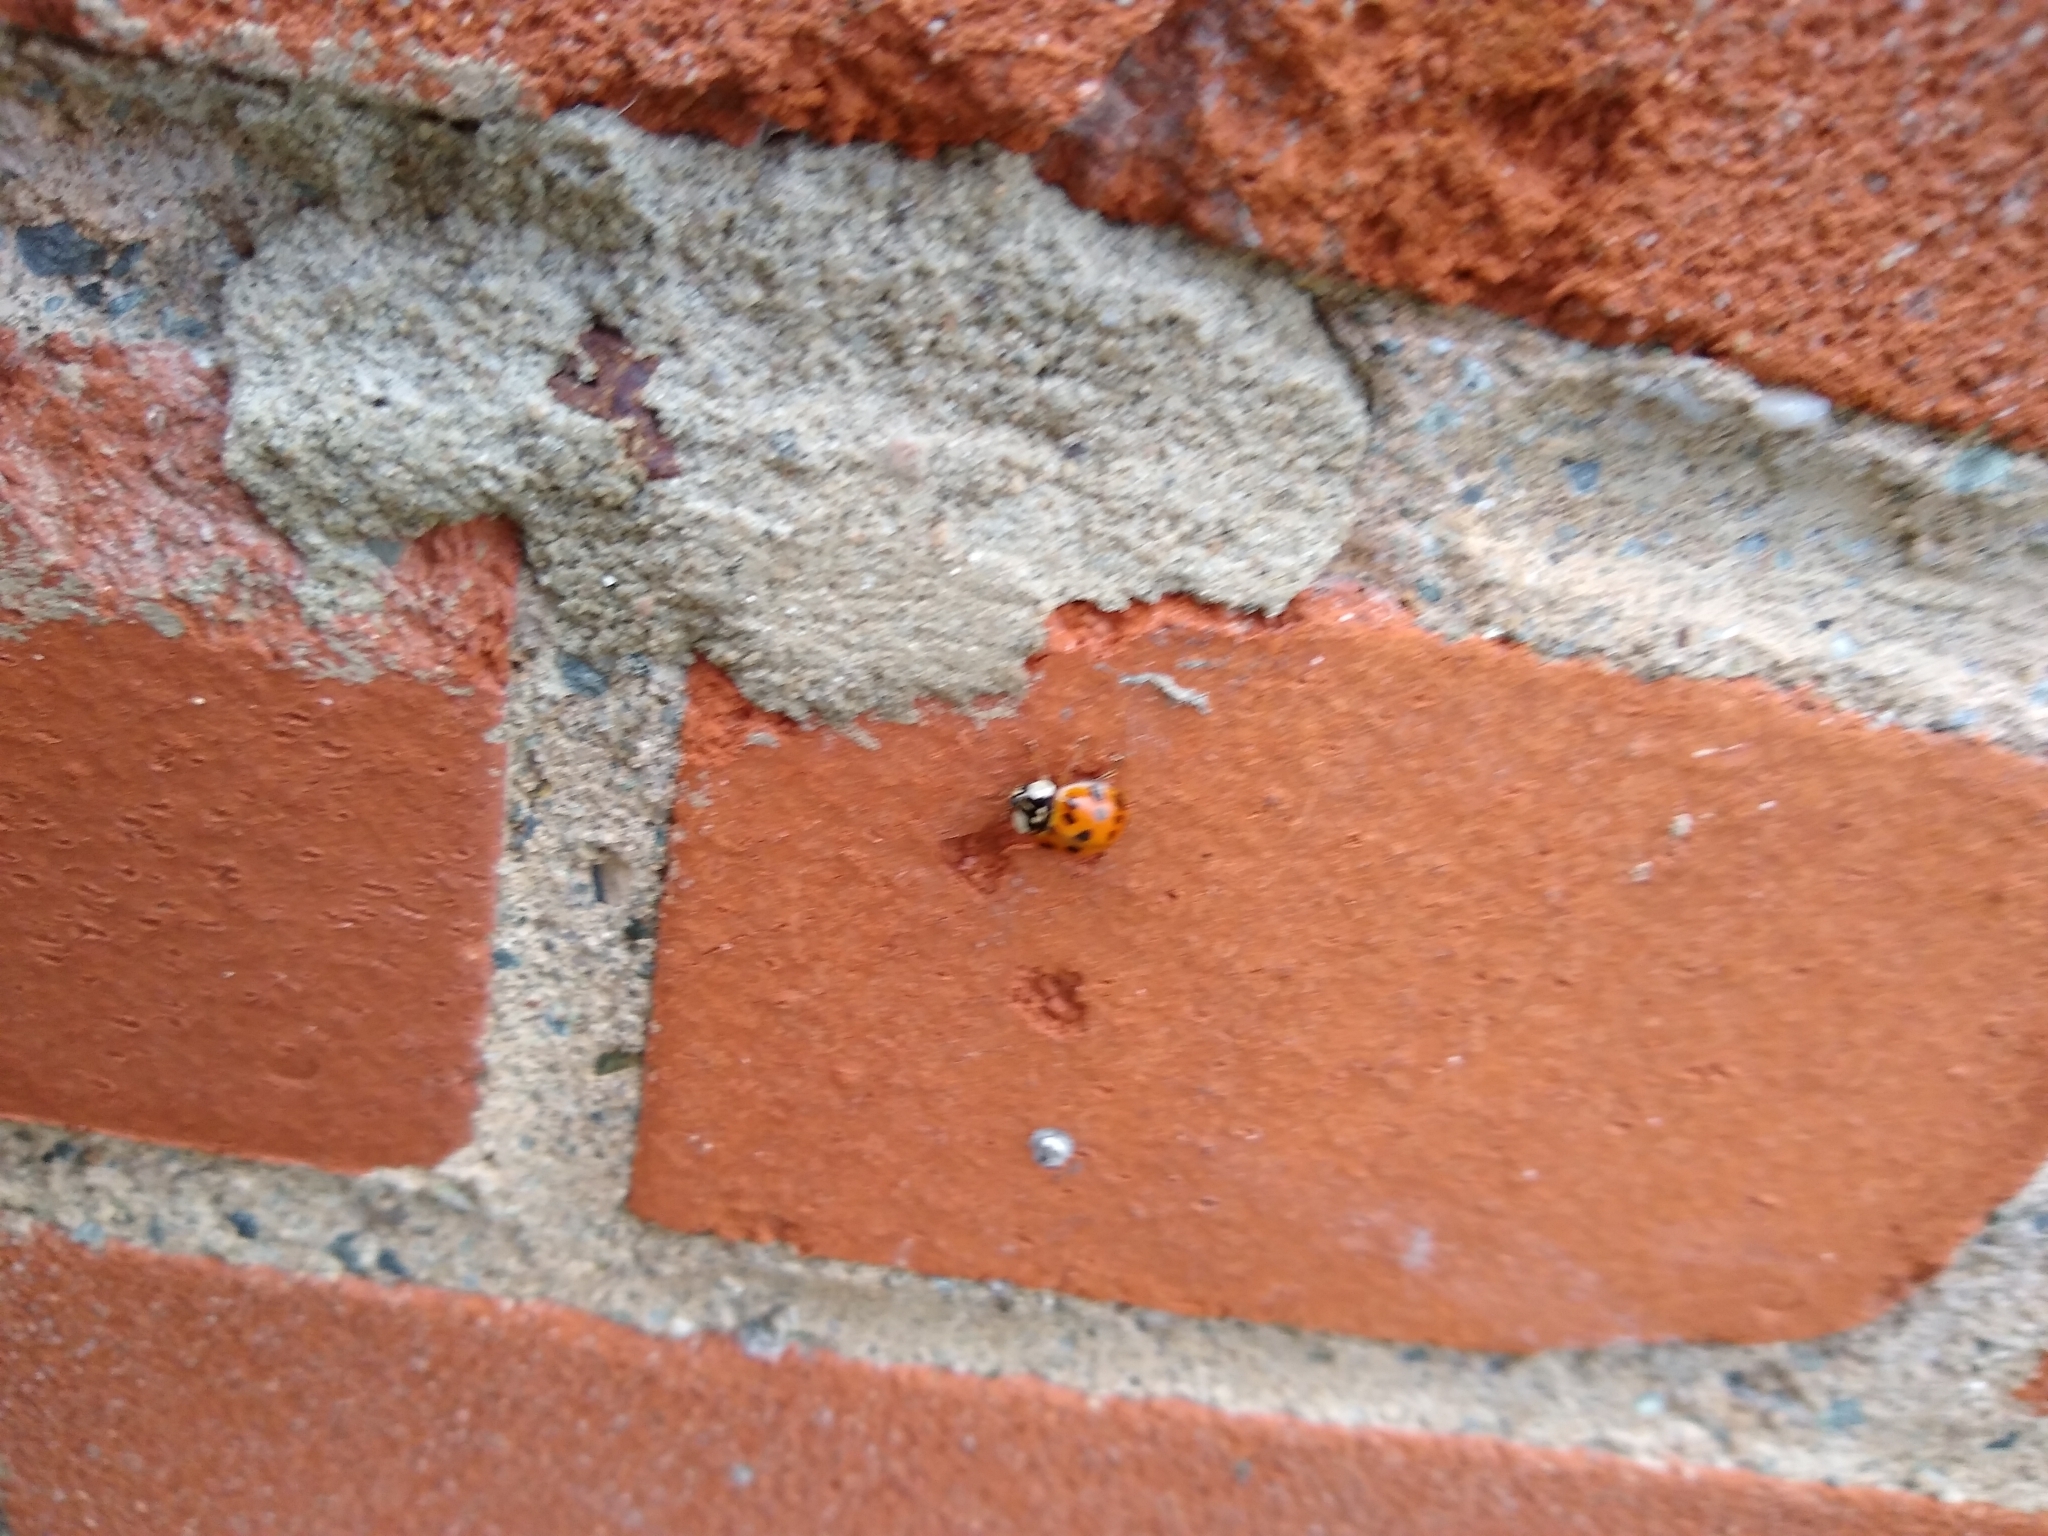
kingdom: Animalia
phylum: Arthropoda
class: Insecta
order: Coleoptera
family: Coccinellidae
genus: Harmonia
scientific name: Harmonia axyridis
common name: Harlequin ladybird
